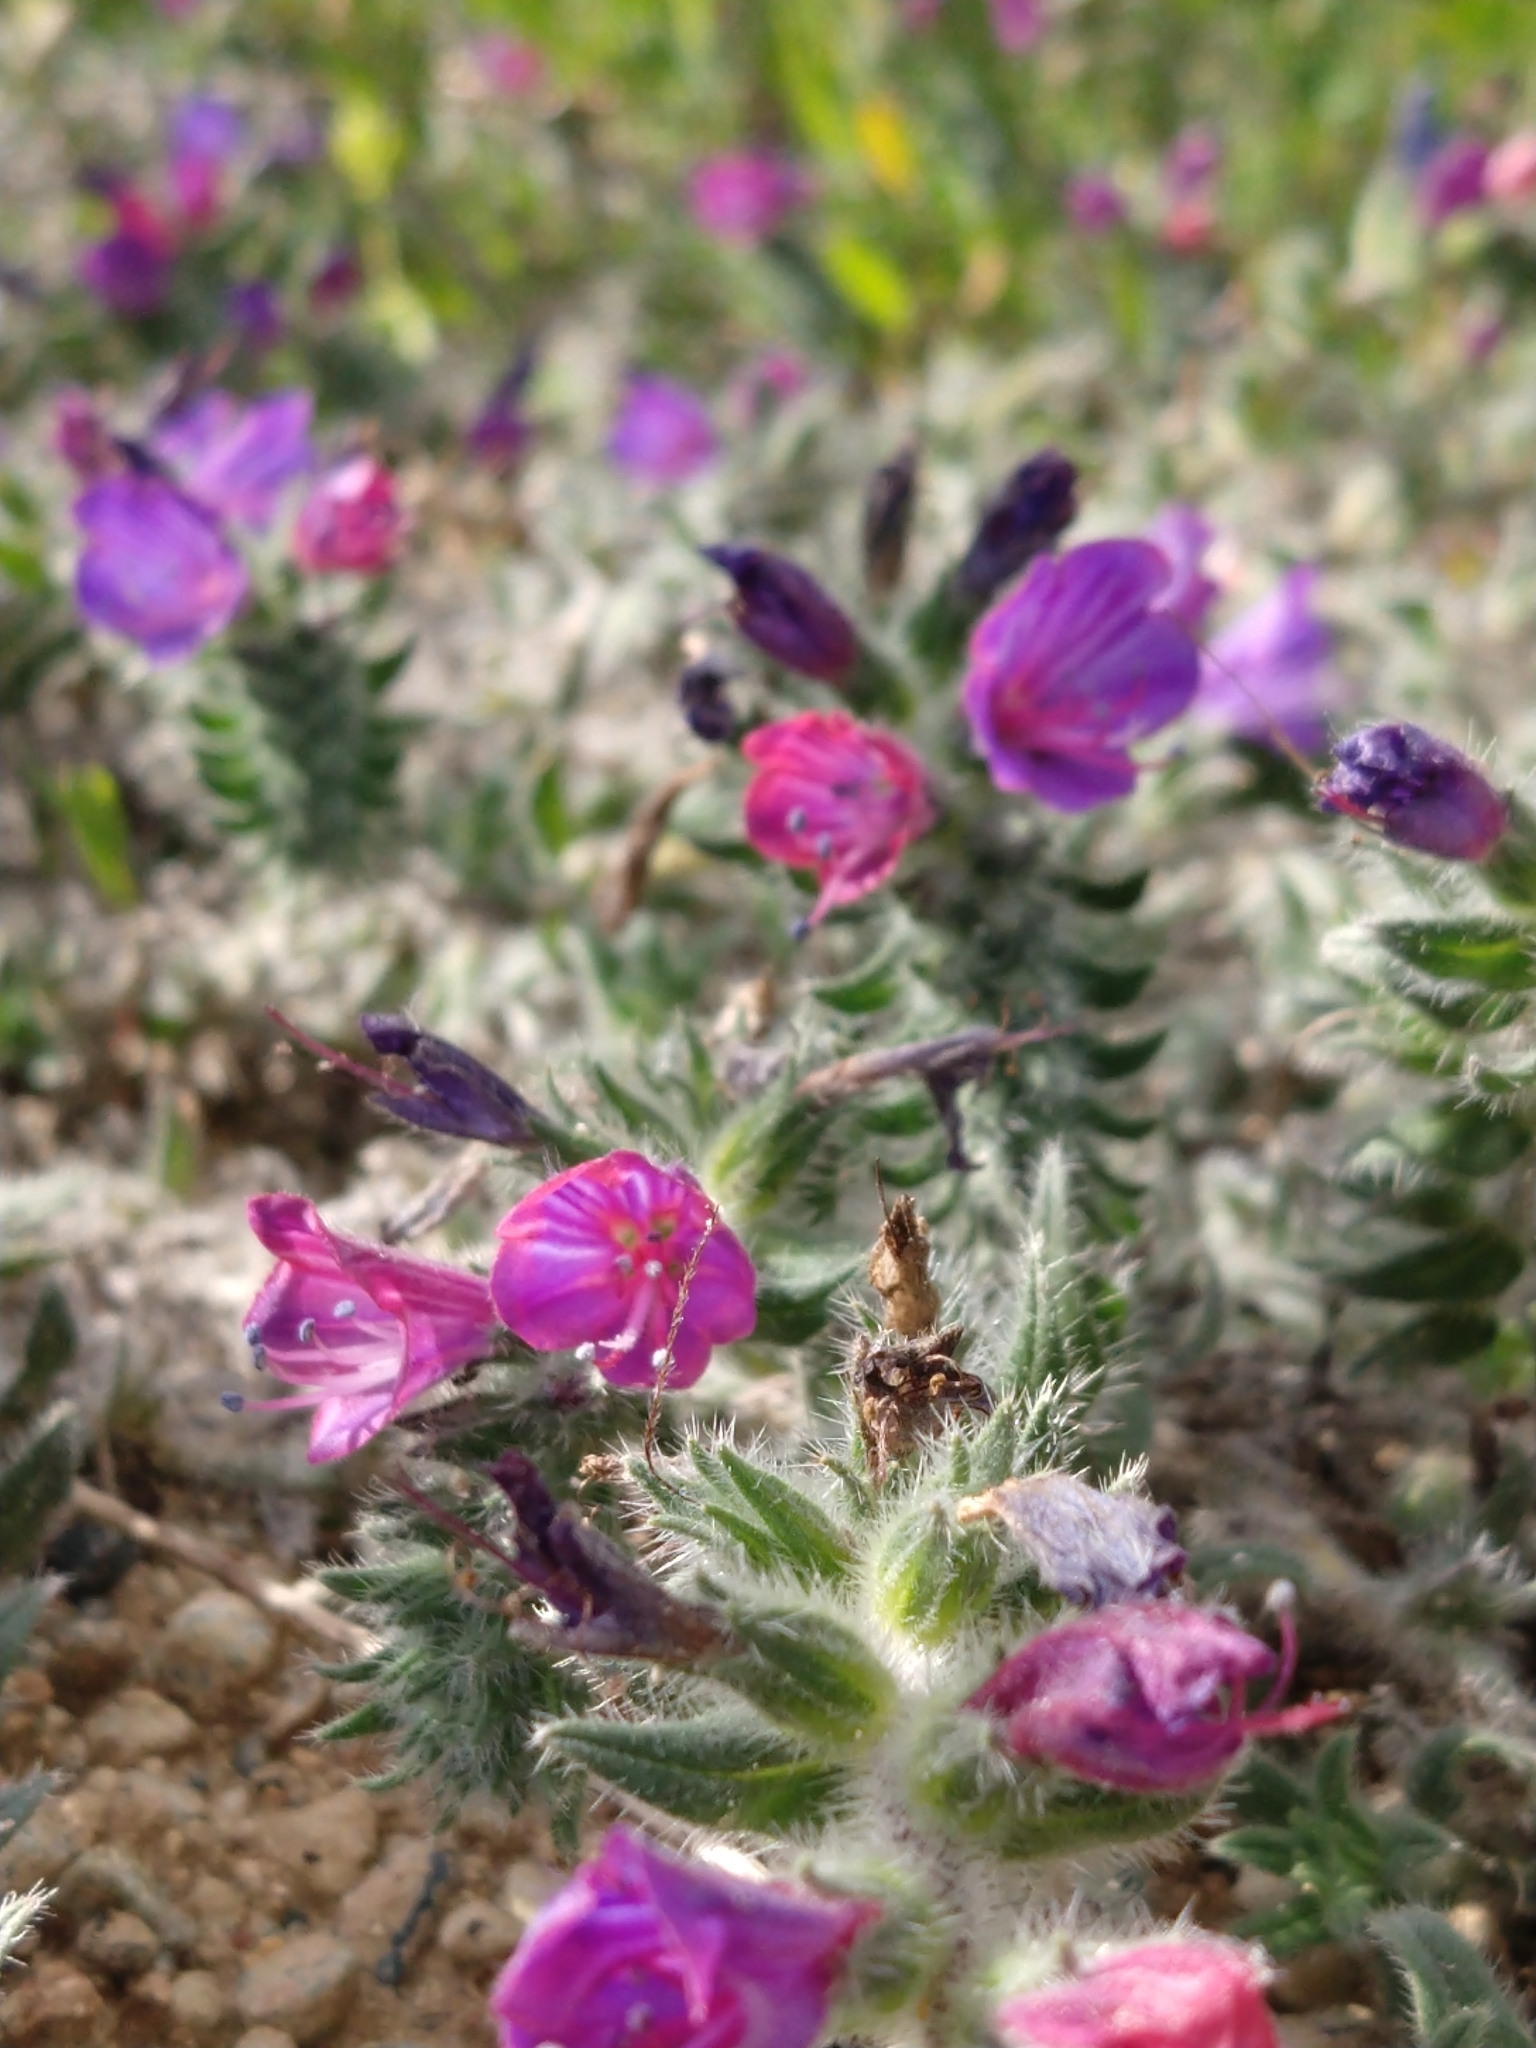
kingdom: Plantae
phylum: Tracheophyta
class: Magnoliopsida
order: Boraginales
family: Boraginaceae
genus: Echium
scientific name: Echium angustifolium
